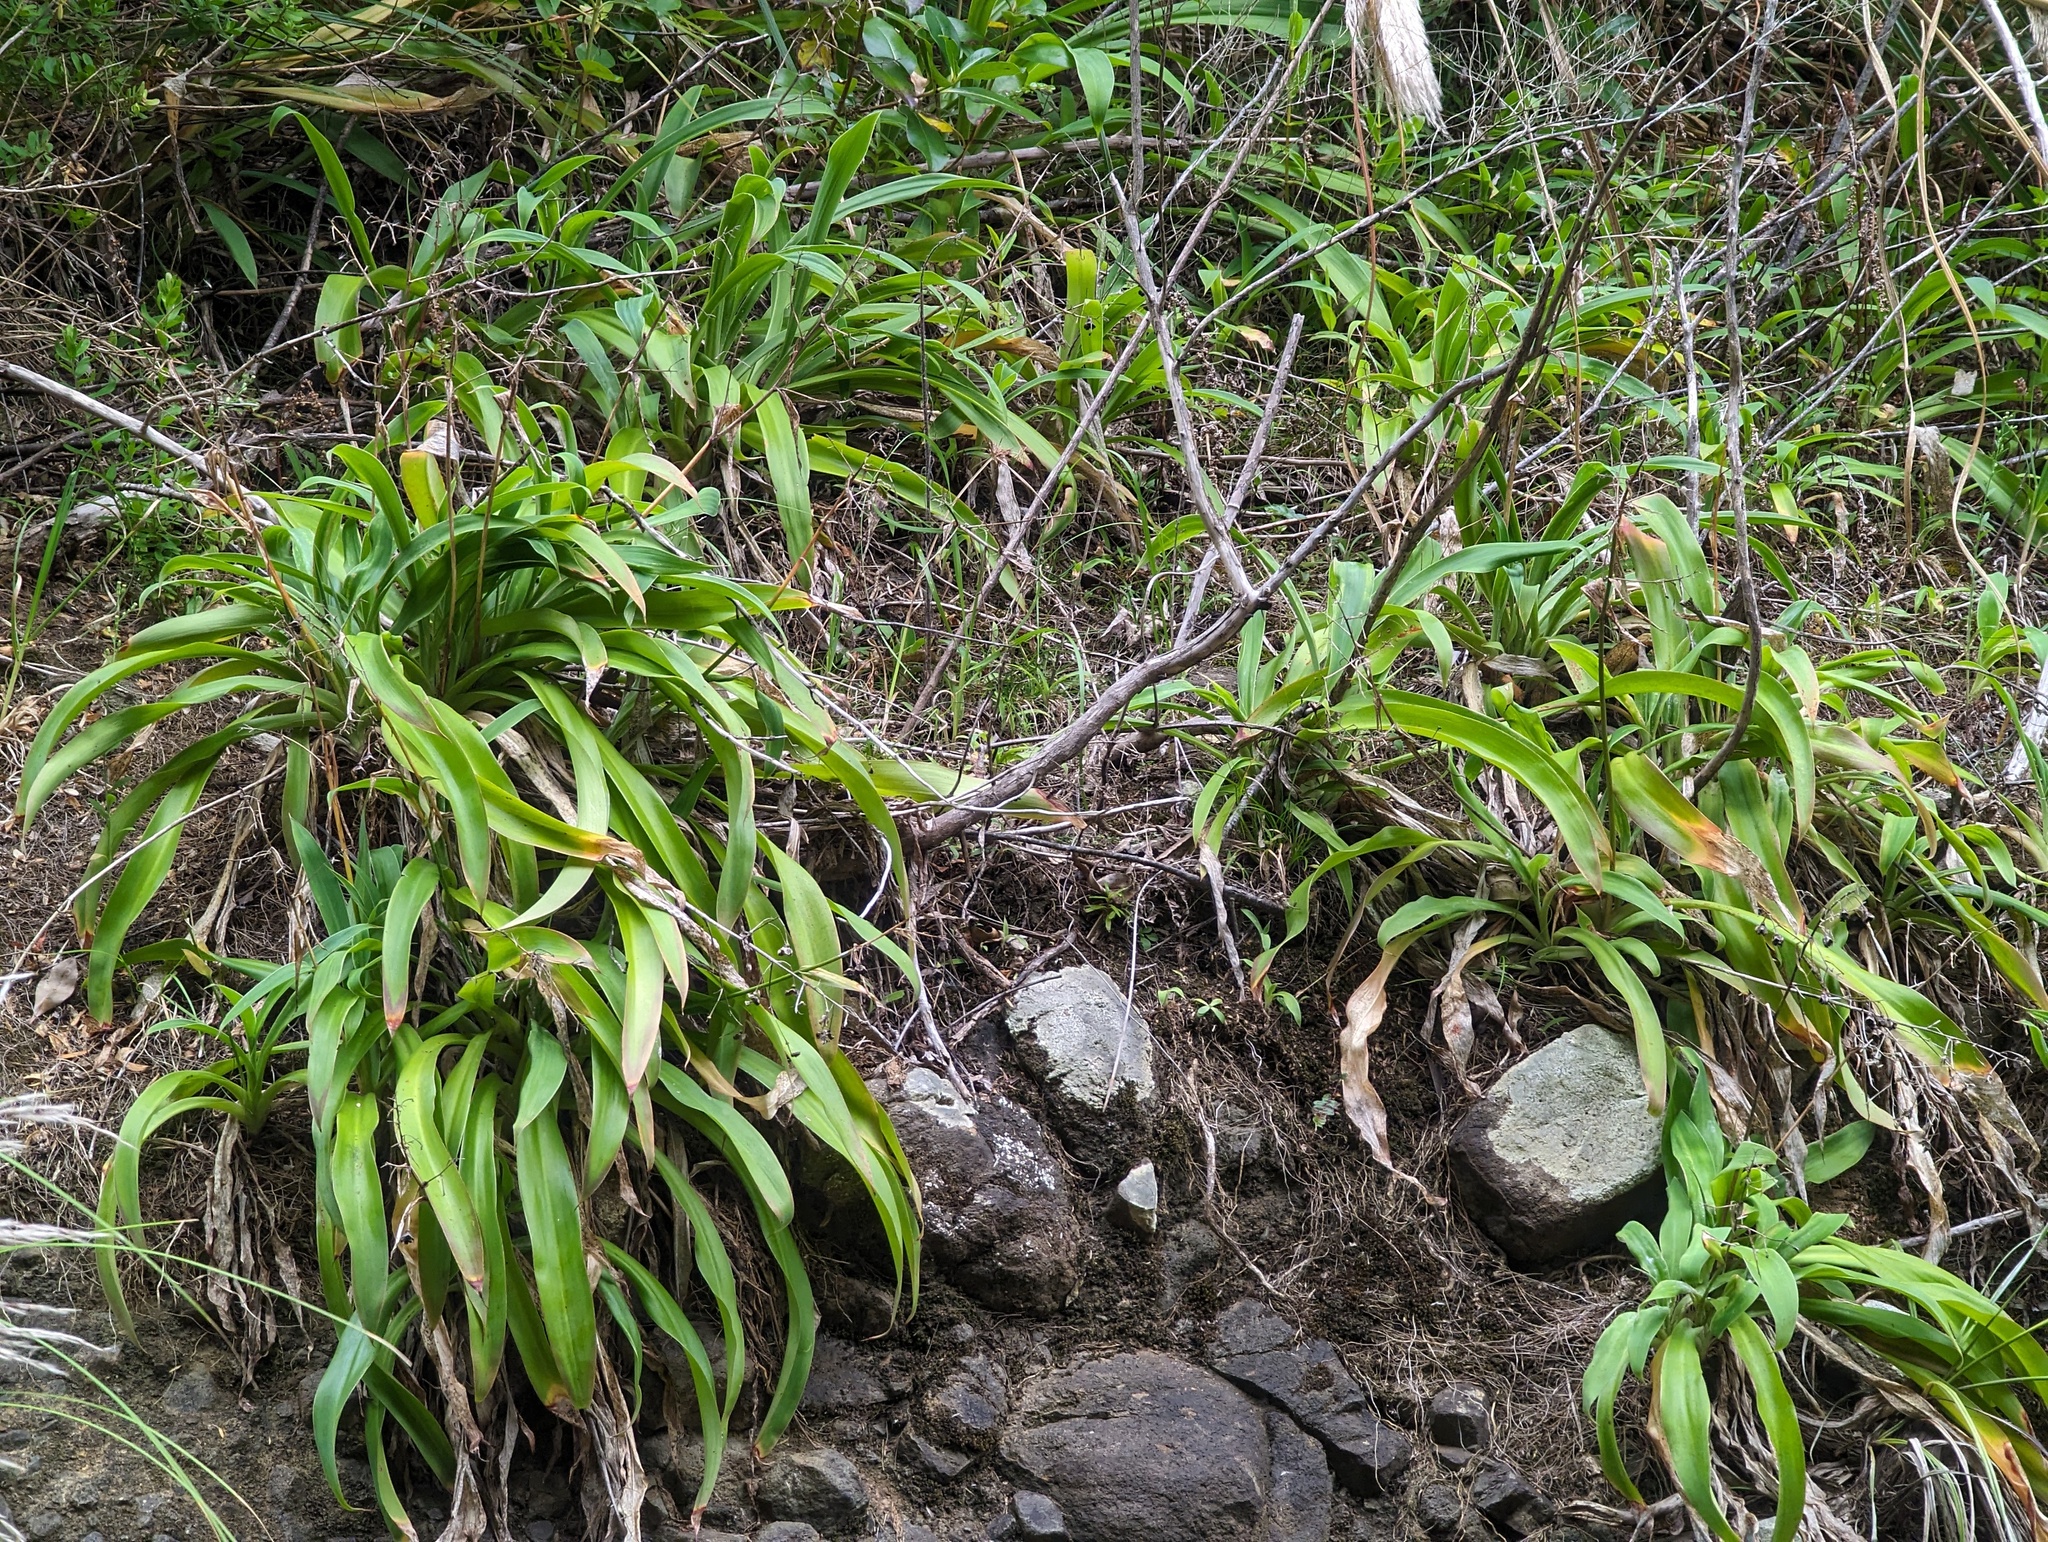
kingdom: Plantae
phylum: Tracheophyta
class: Liliopsida
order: Asparagales
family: Asparagaceae
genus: Arthropodium
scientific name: Arthropodium cirratum
